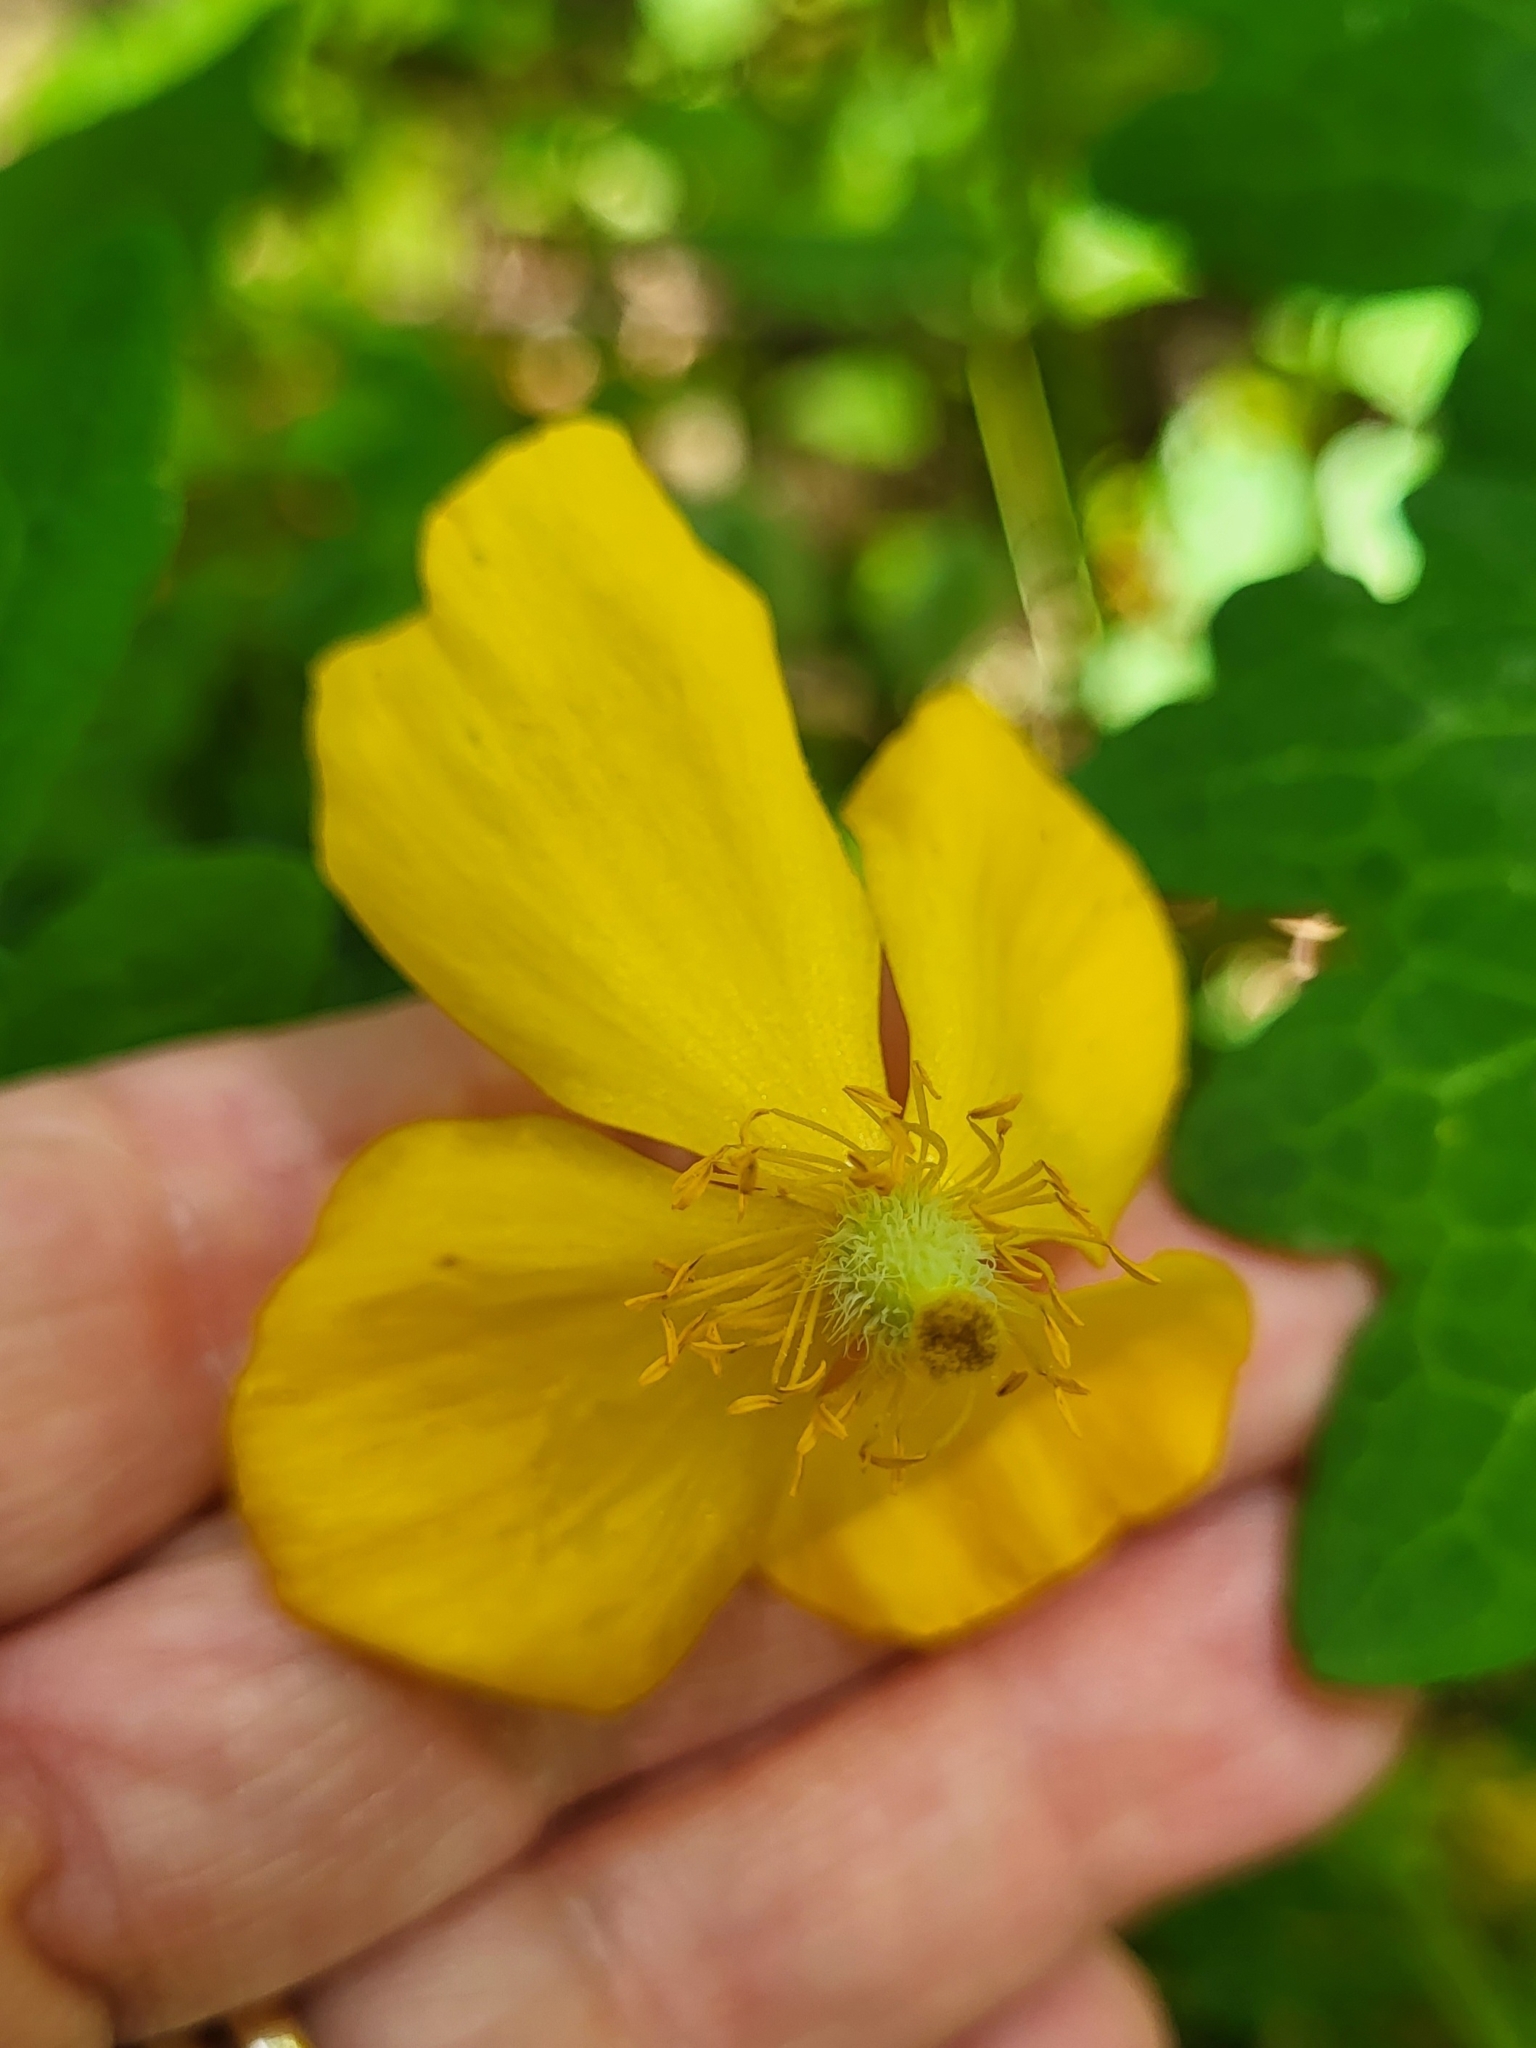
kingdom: Plantae
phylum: Tracheophyta
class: Magnoliopsida
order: Ranunculales
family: Papaveraceae
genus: Stylophorum
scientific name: Stylophorum diphyllum
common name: Celandine poppy
